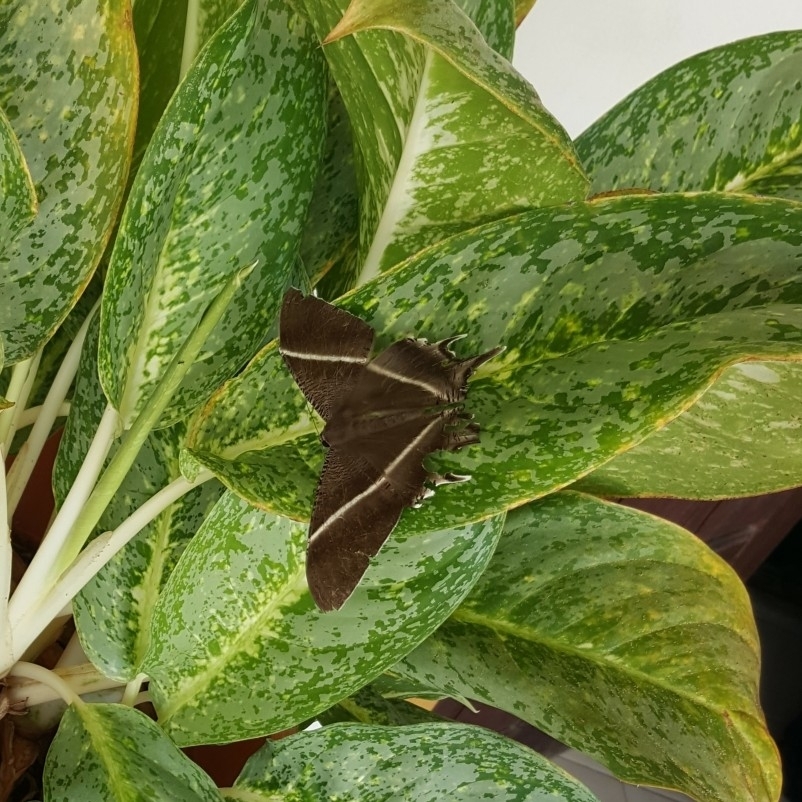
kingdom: Animalia
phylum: Arthropoda
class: Insecta
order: Lepidoptera
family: Uraniidae
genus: Lyssa
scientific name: Lyssa zampa
